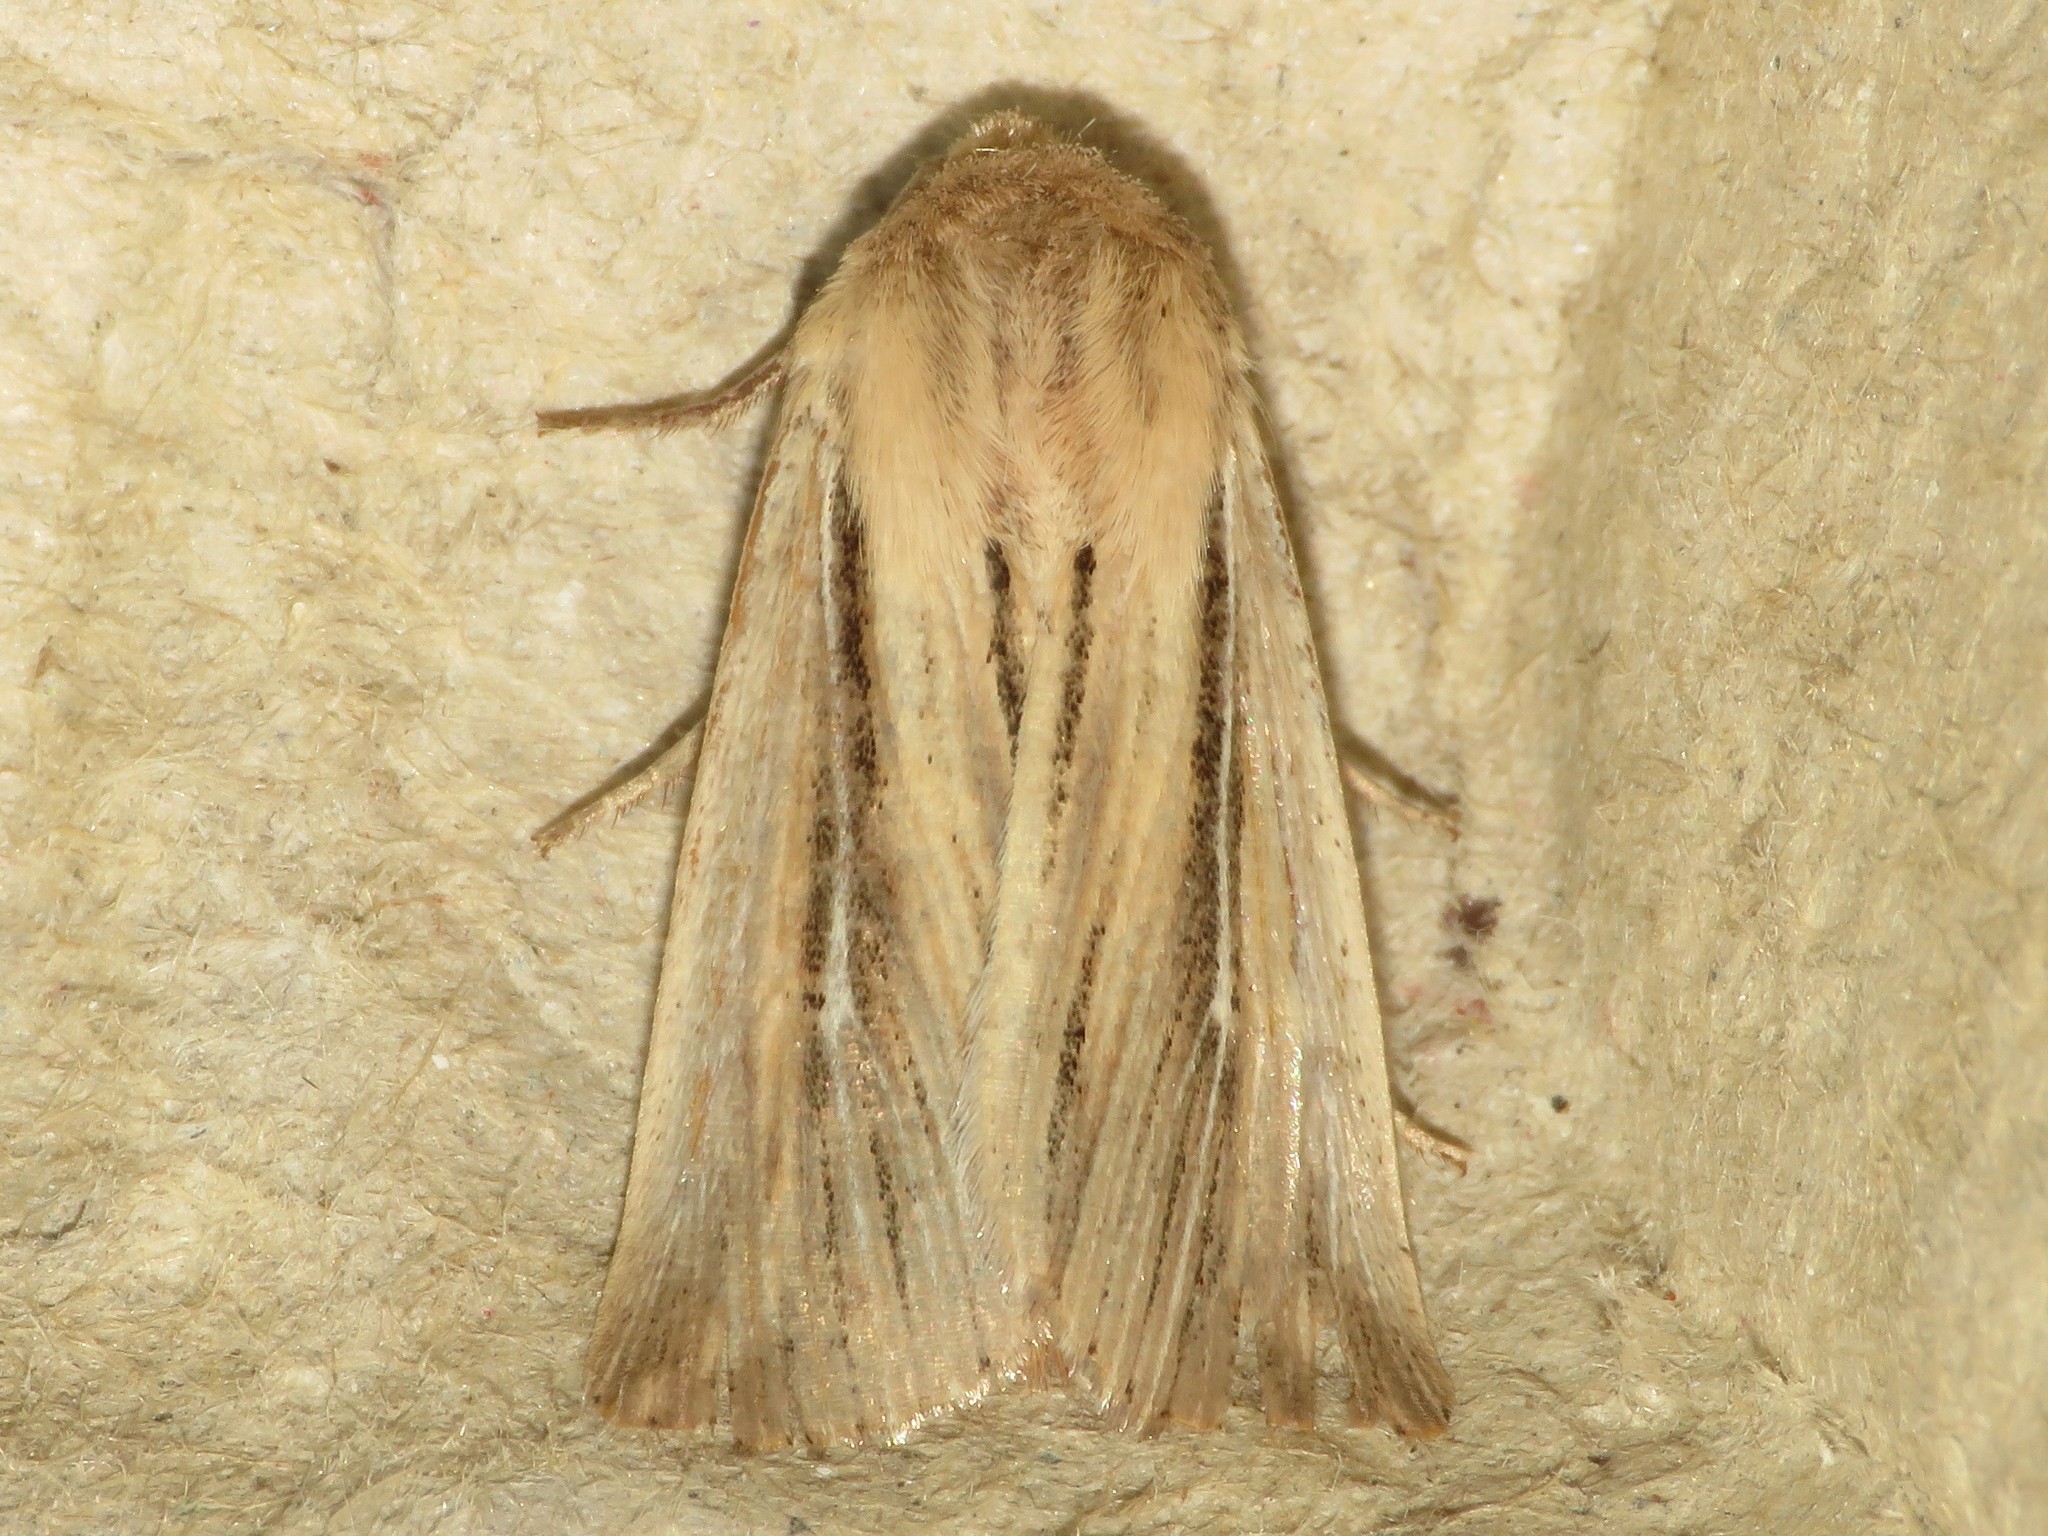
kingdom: Animalia
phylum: Arthropoda
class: Insecta
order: Lepidoptera
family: Noctuidae
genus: Leucania
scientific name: Leucania commoides
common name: Two-lined wainscot
